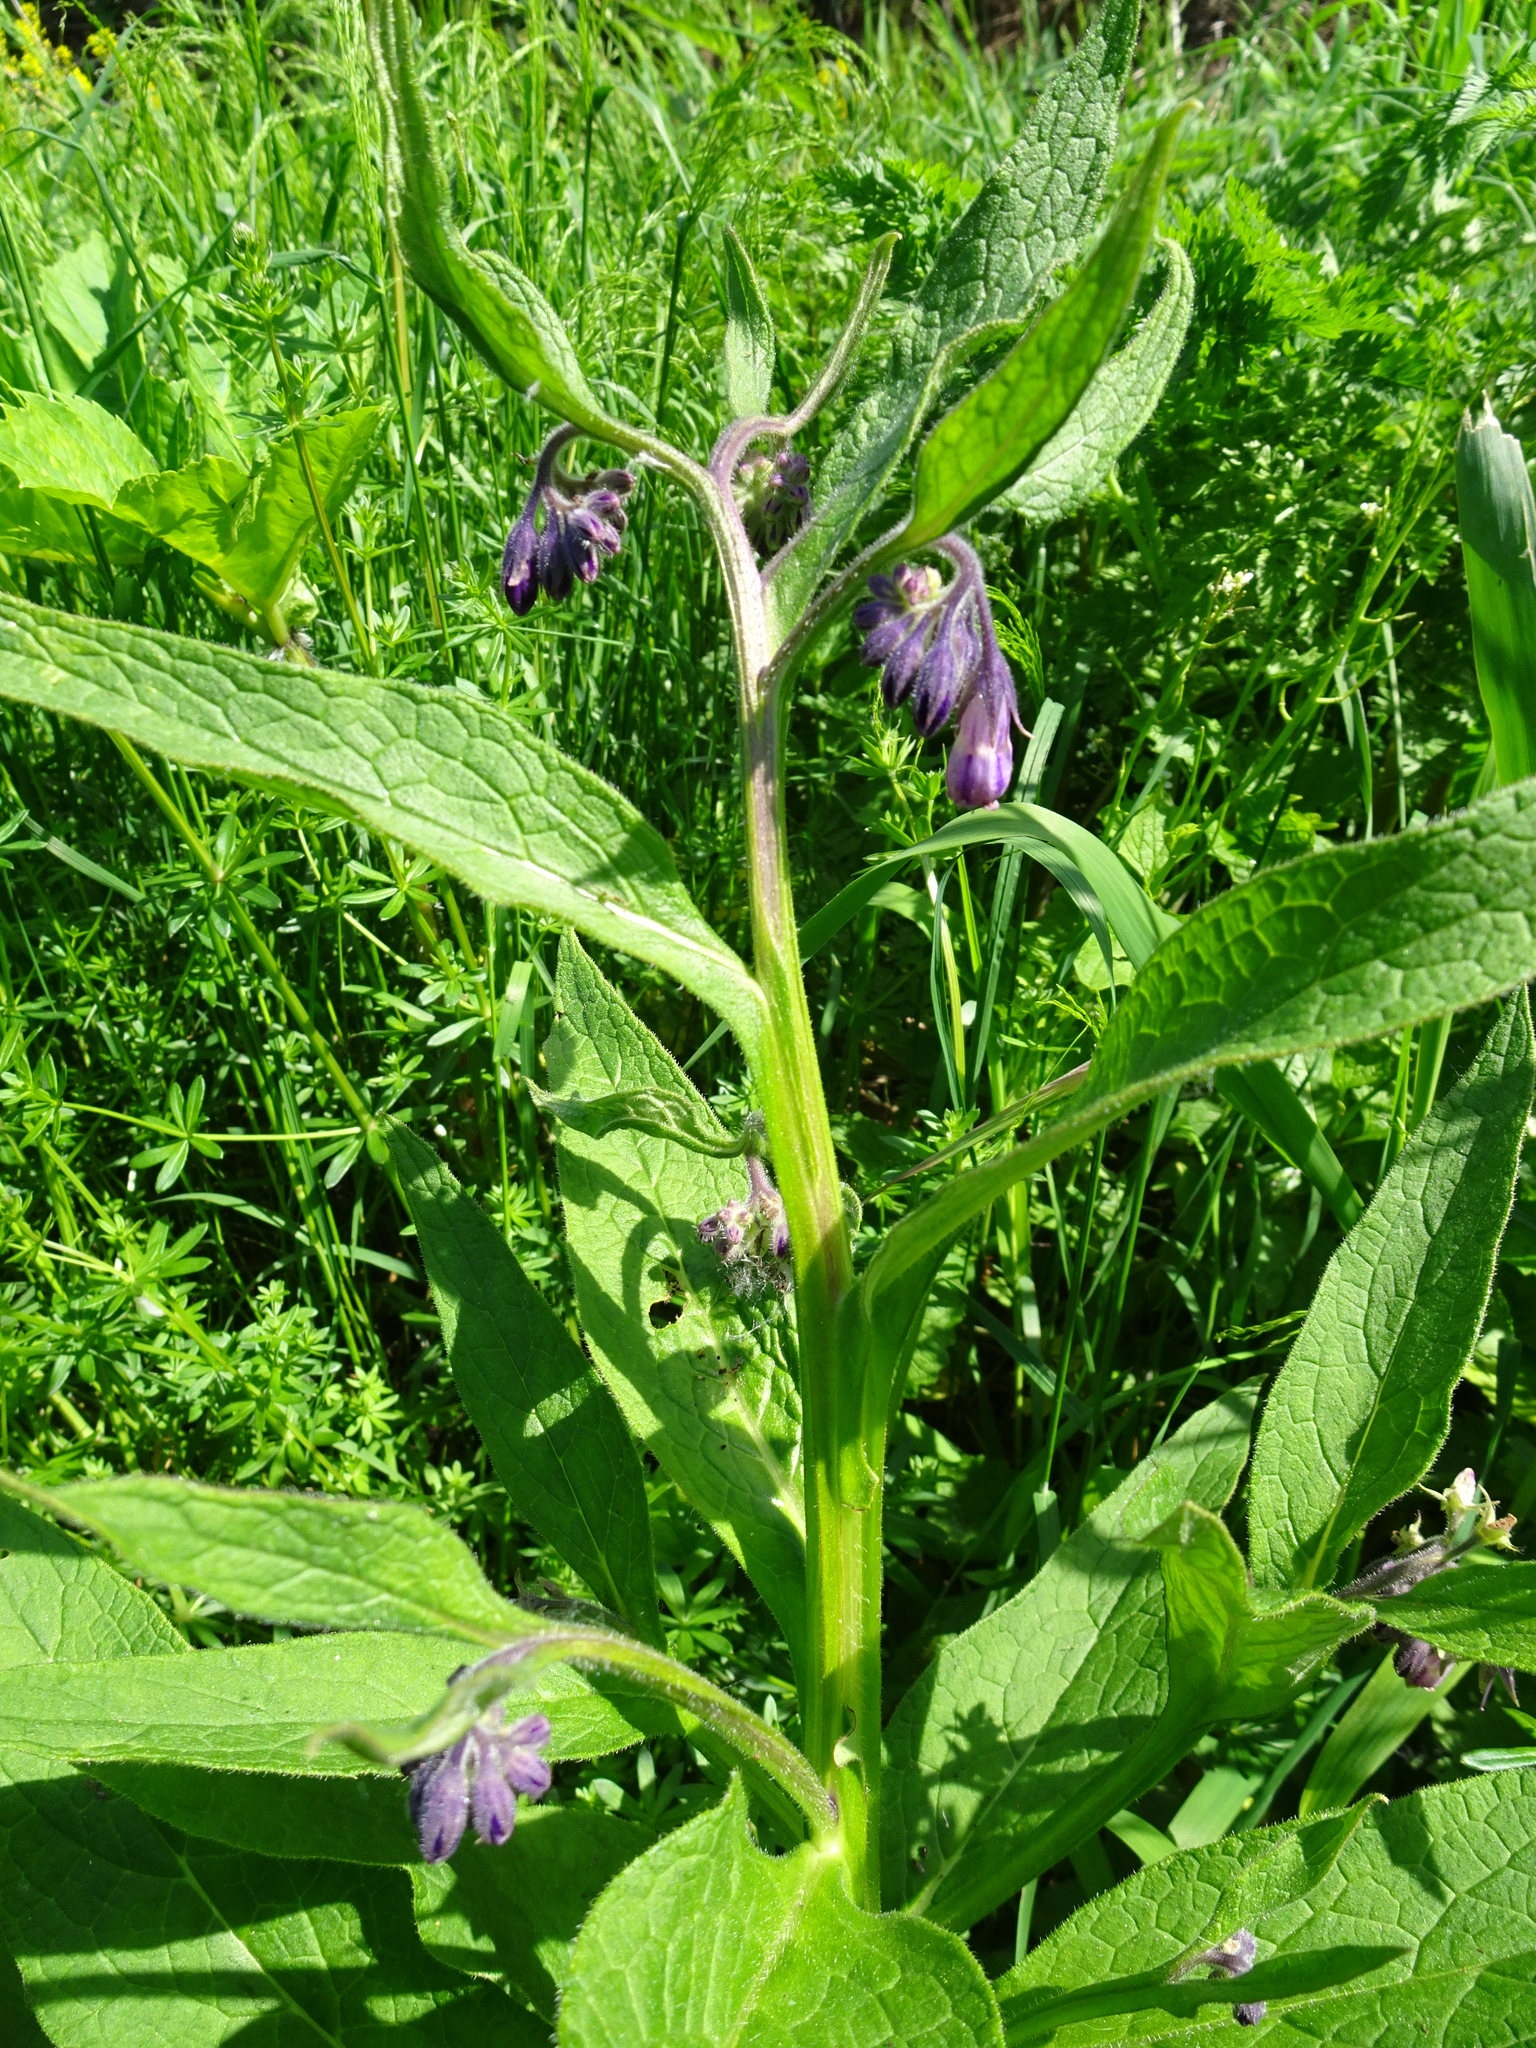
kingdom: Plantae
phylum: Tracheophyta
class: Magnoliopsida
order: Boraginales
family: Boraginaceae
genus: Symphytum
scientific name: Symphytum officinale
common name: Common comfrey
